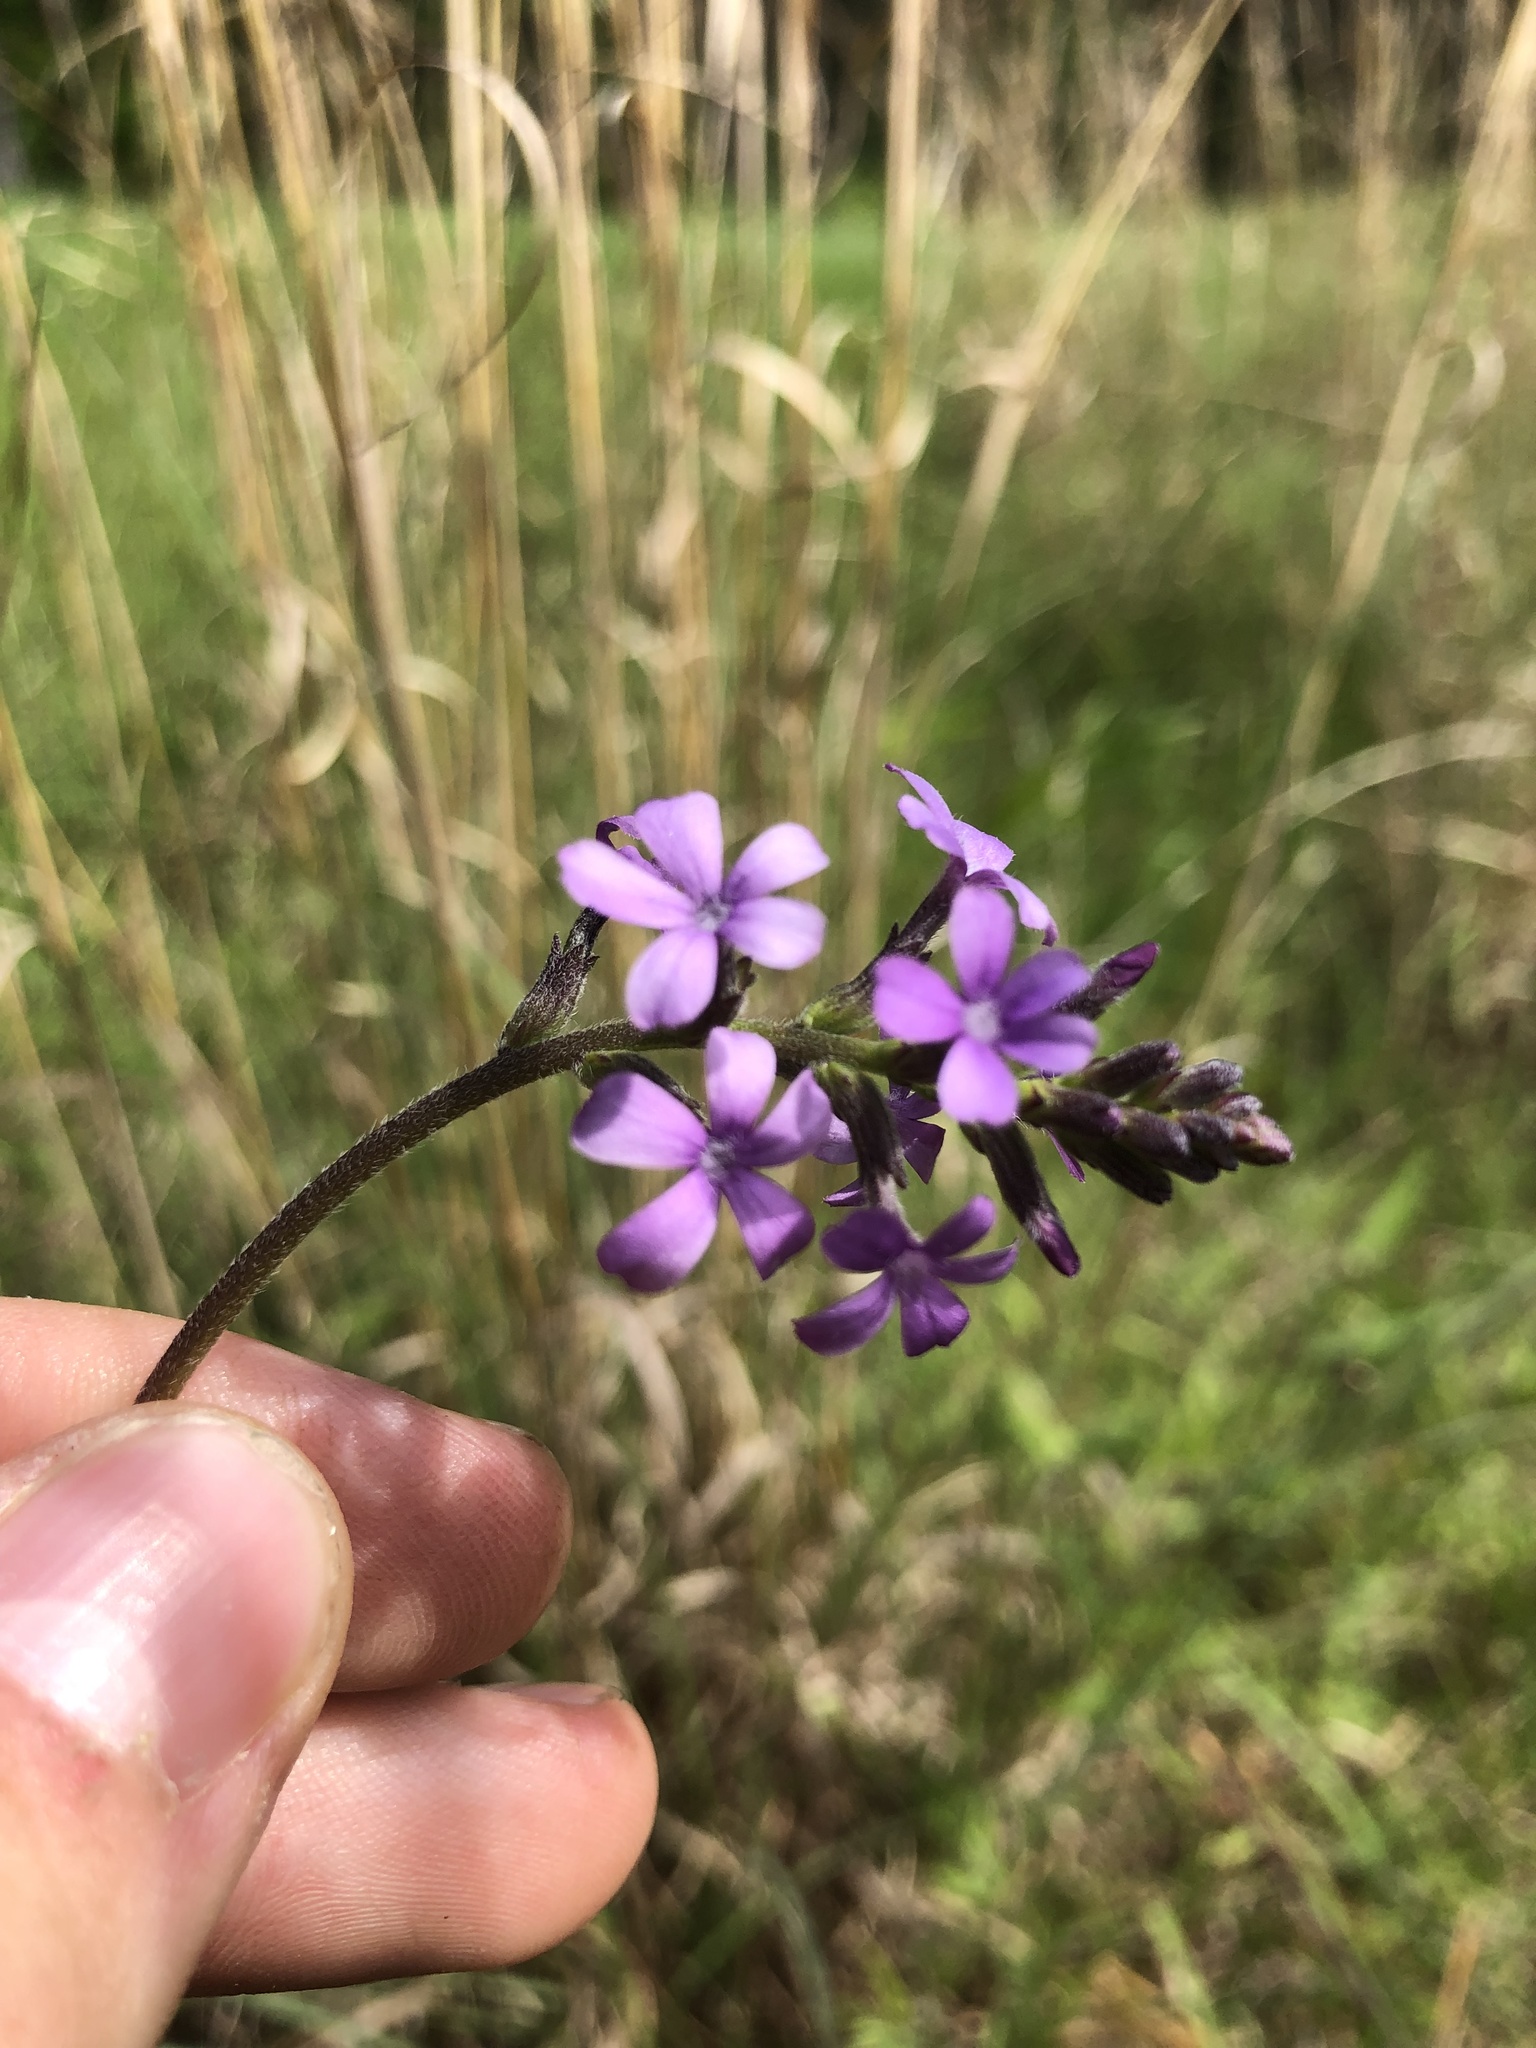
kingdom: Plantae
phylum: Tracheophyta
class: Magnoliopsida
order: Lamiales
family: Orobanchaceae
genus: Buchnera
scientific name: Buchnera floridana
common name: Florida bluehearts
